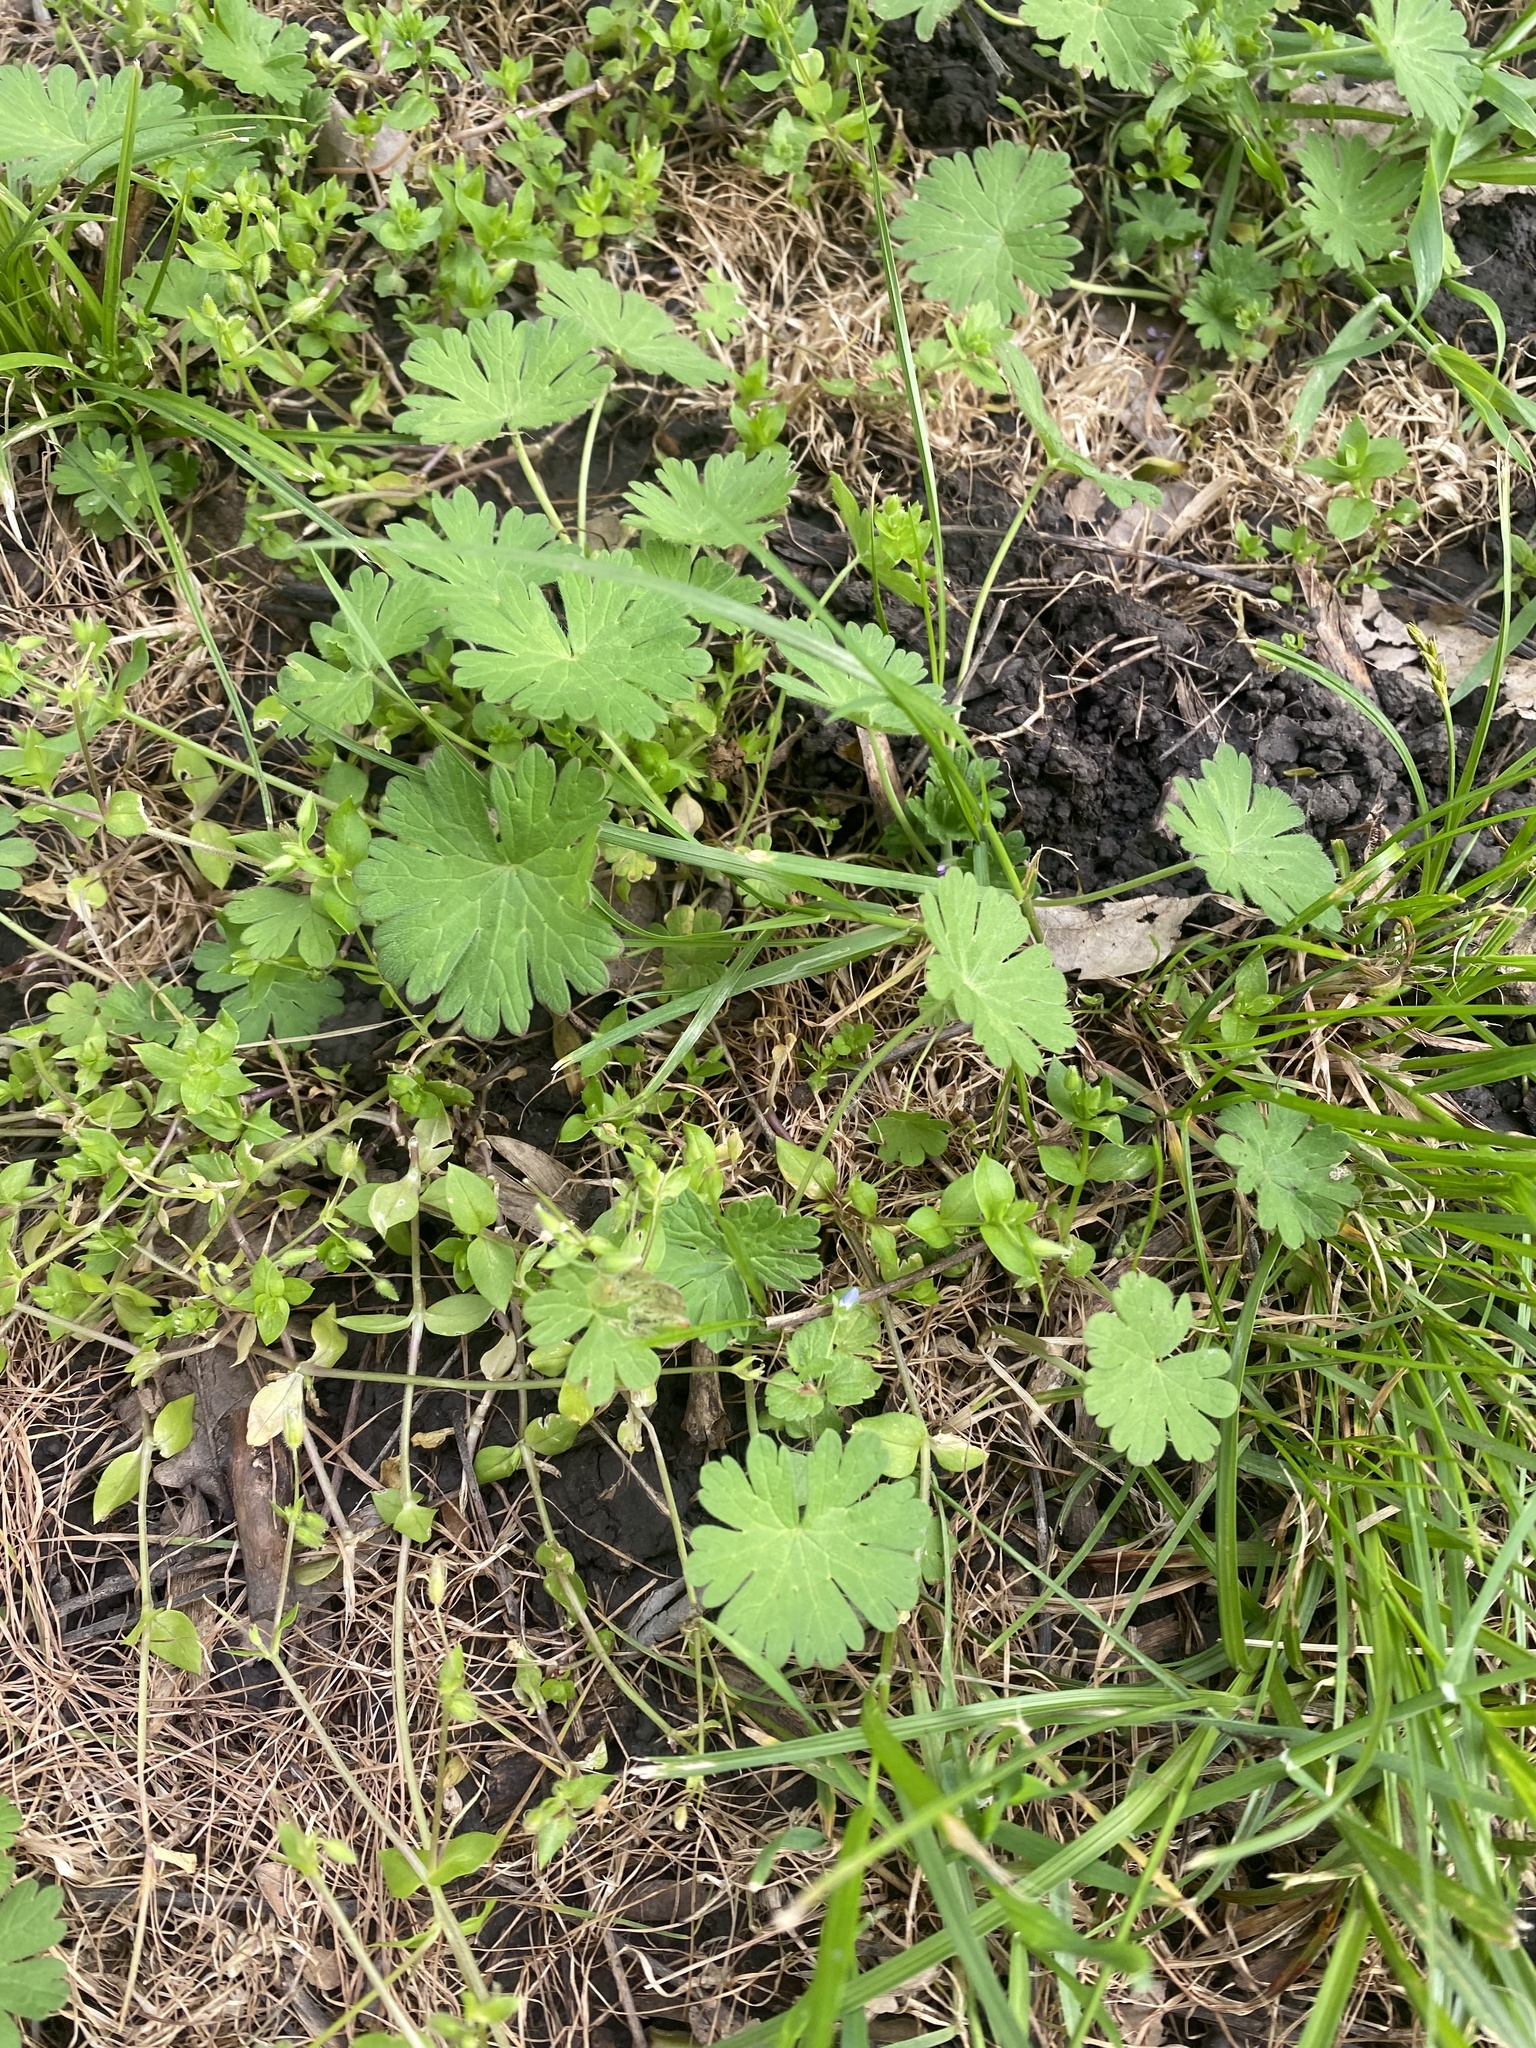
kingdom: Plantae
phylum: Tracheophyta
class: Magnoliopsida
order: Geraniales
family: Geraniaceae
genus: Geranium
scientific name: Geranium pusillum
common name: Small geranium
